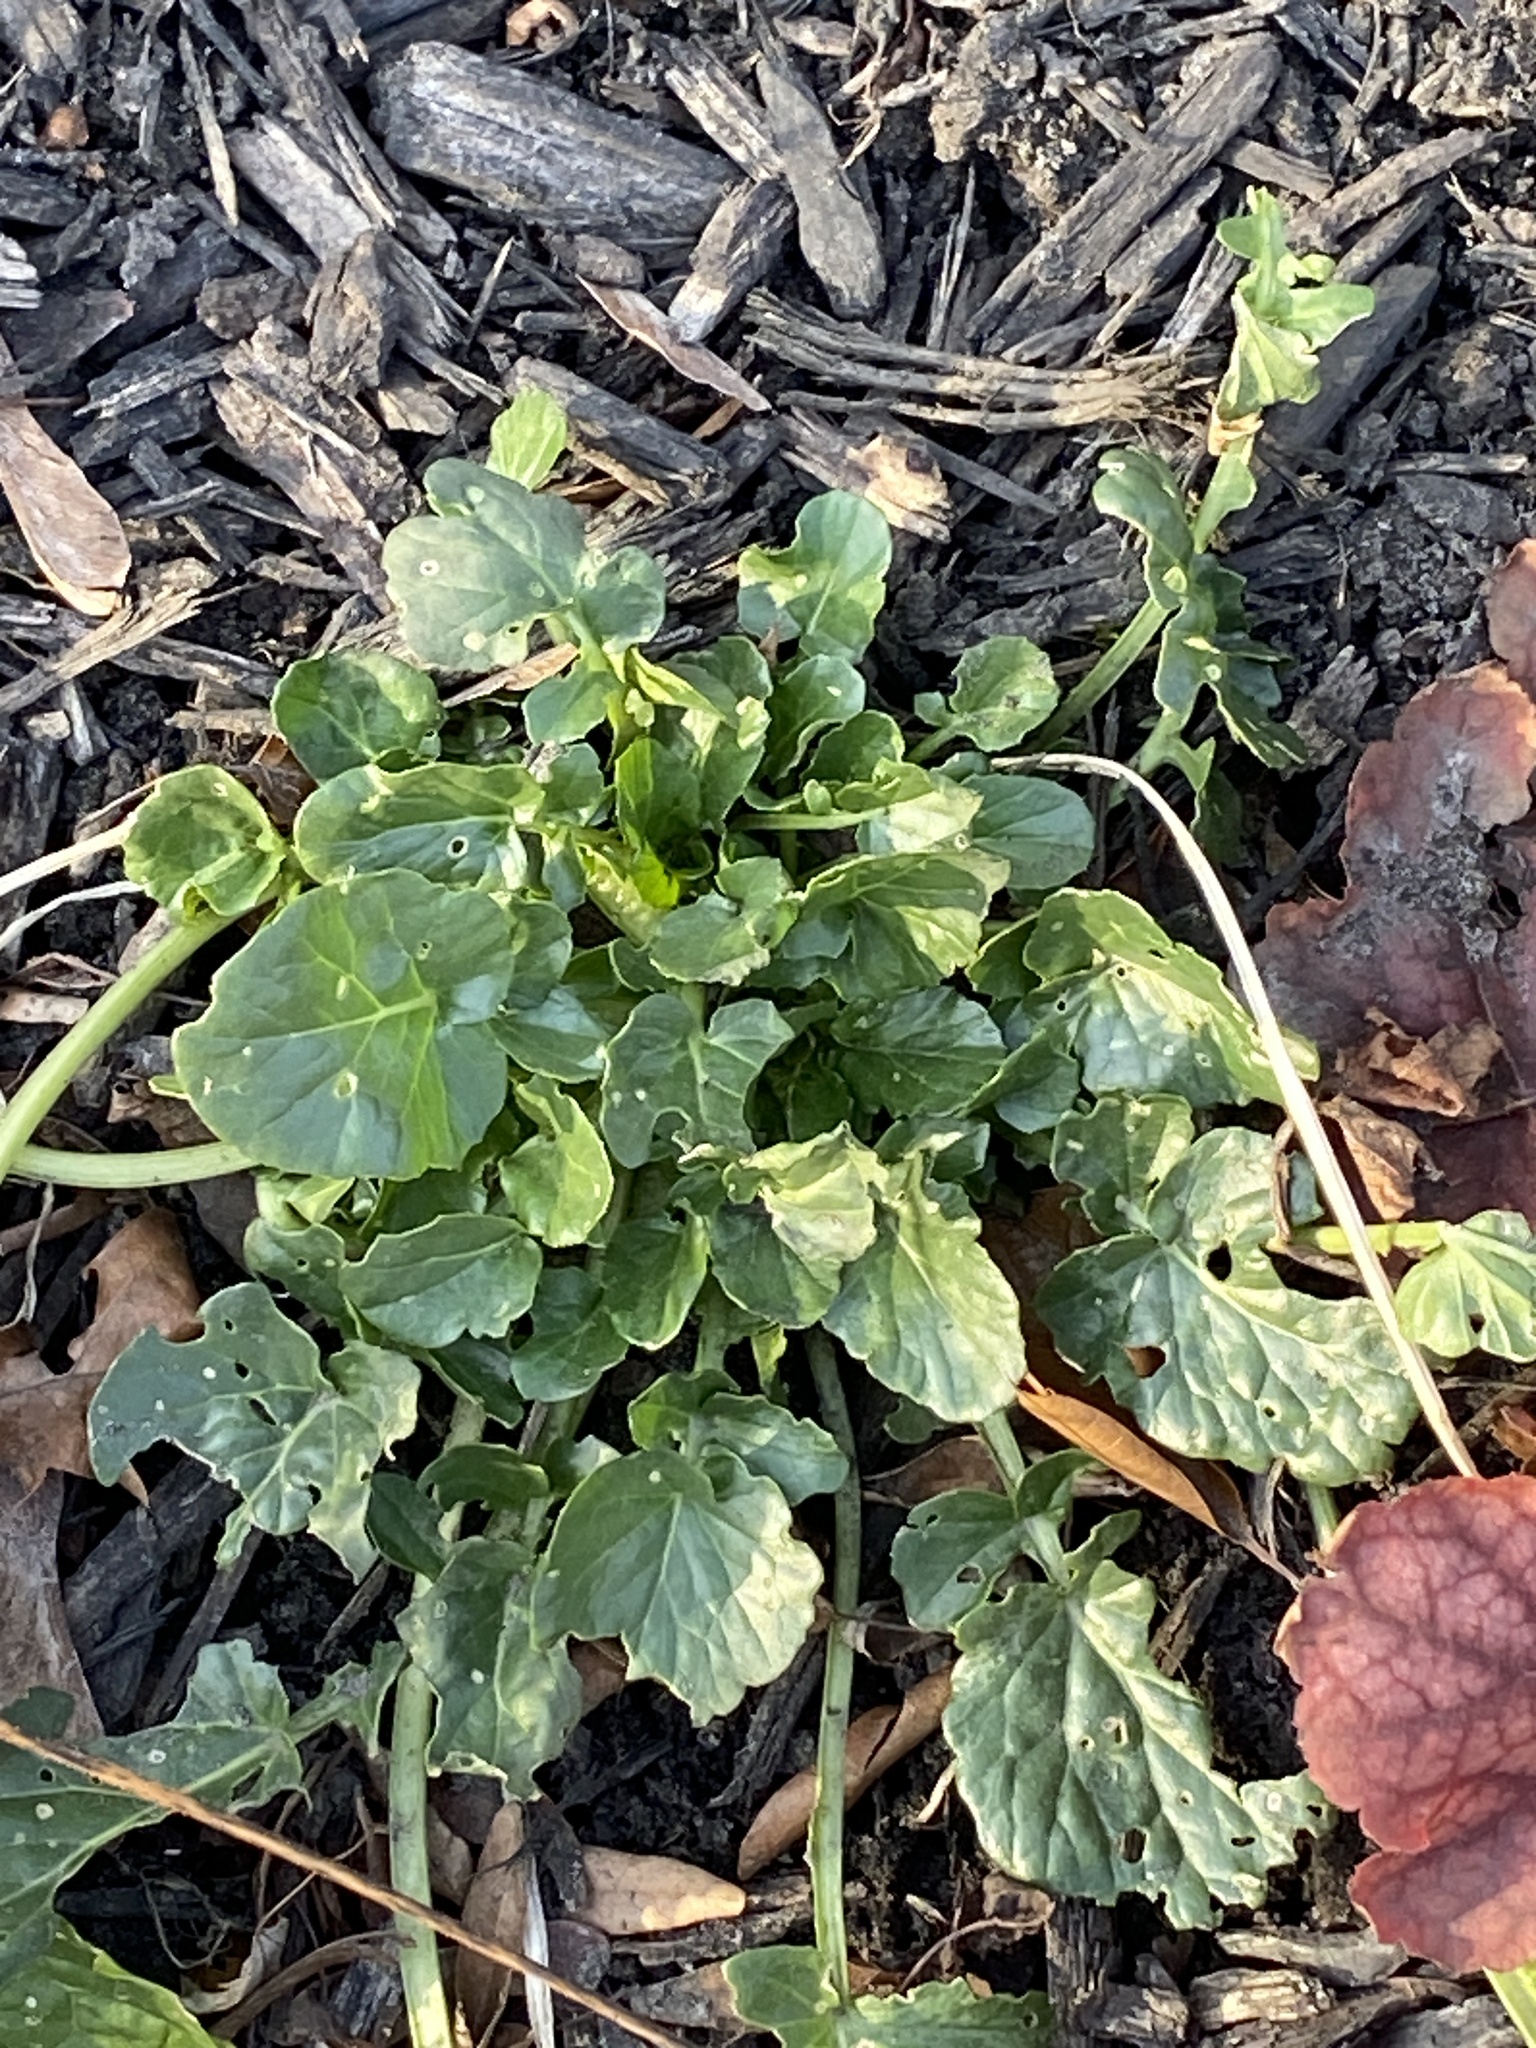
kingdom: Plantae
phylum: Tracheophyta
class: Magnoliopsida
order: Brassicales
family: Brassicaceae
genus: Barbarea
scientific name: Barbarea vulgaris
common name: Cressy-greens
